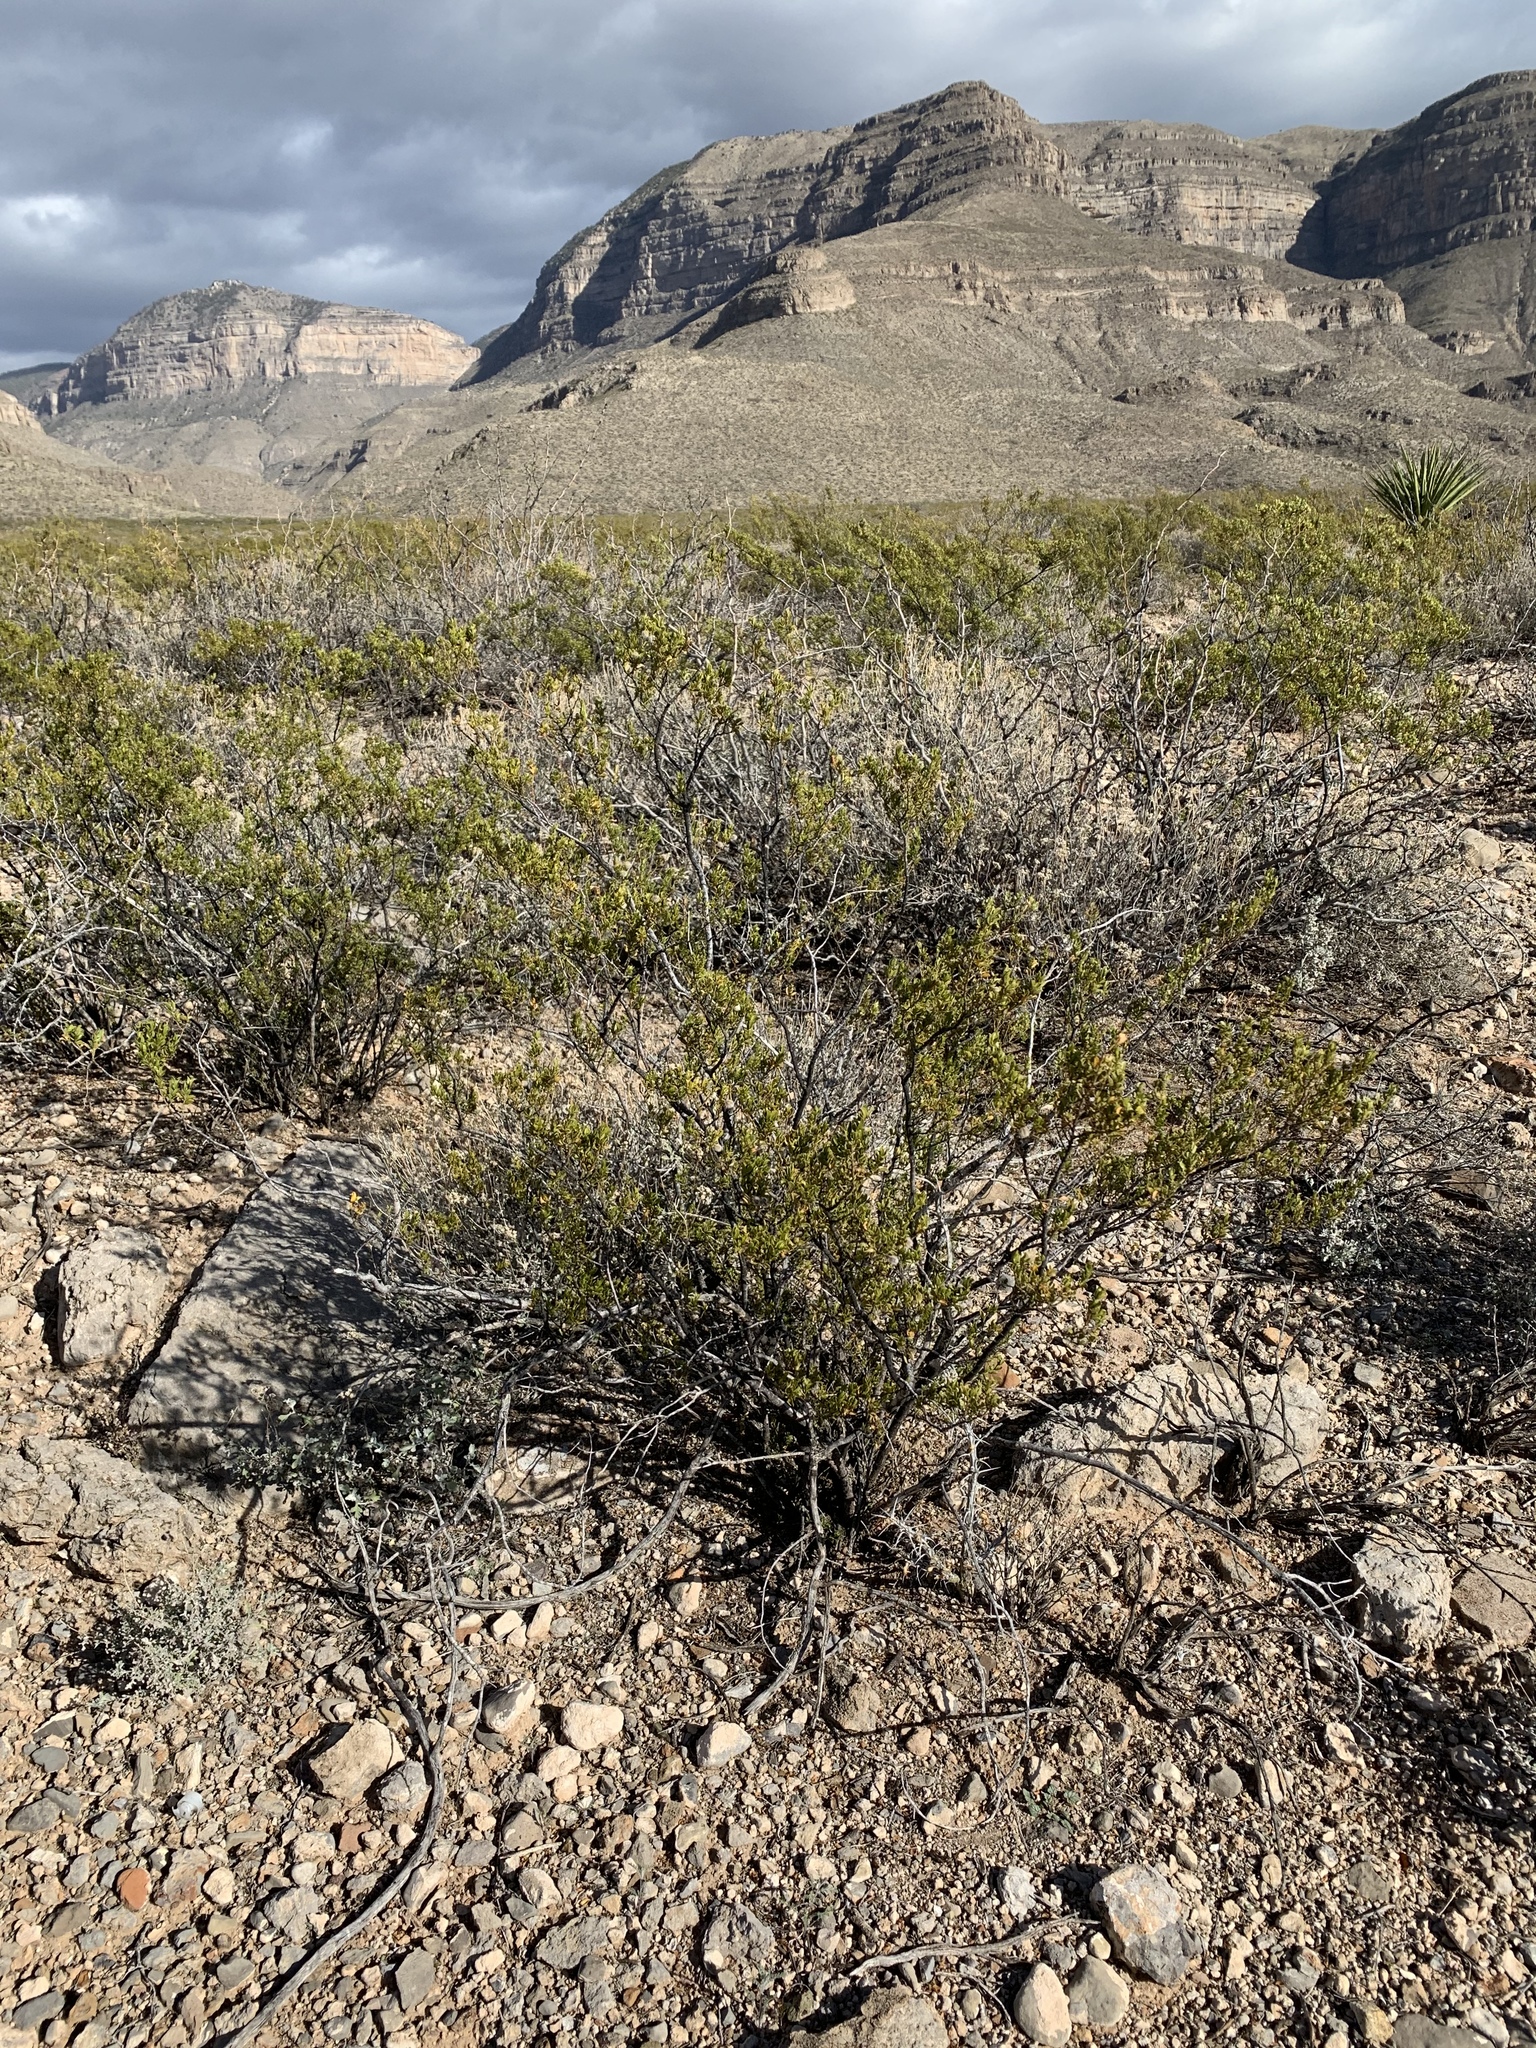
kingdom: Plantae
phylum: Tracheophyta
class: Magnoliopsida
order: Zygophyllales
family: Zygophyllaceae
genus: Larrea
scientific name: Larrea tridentata
